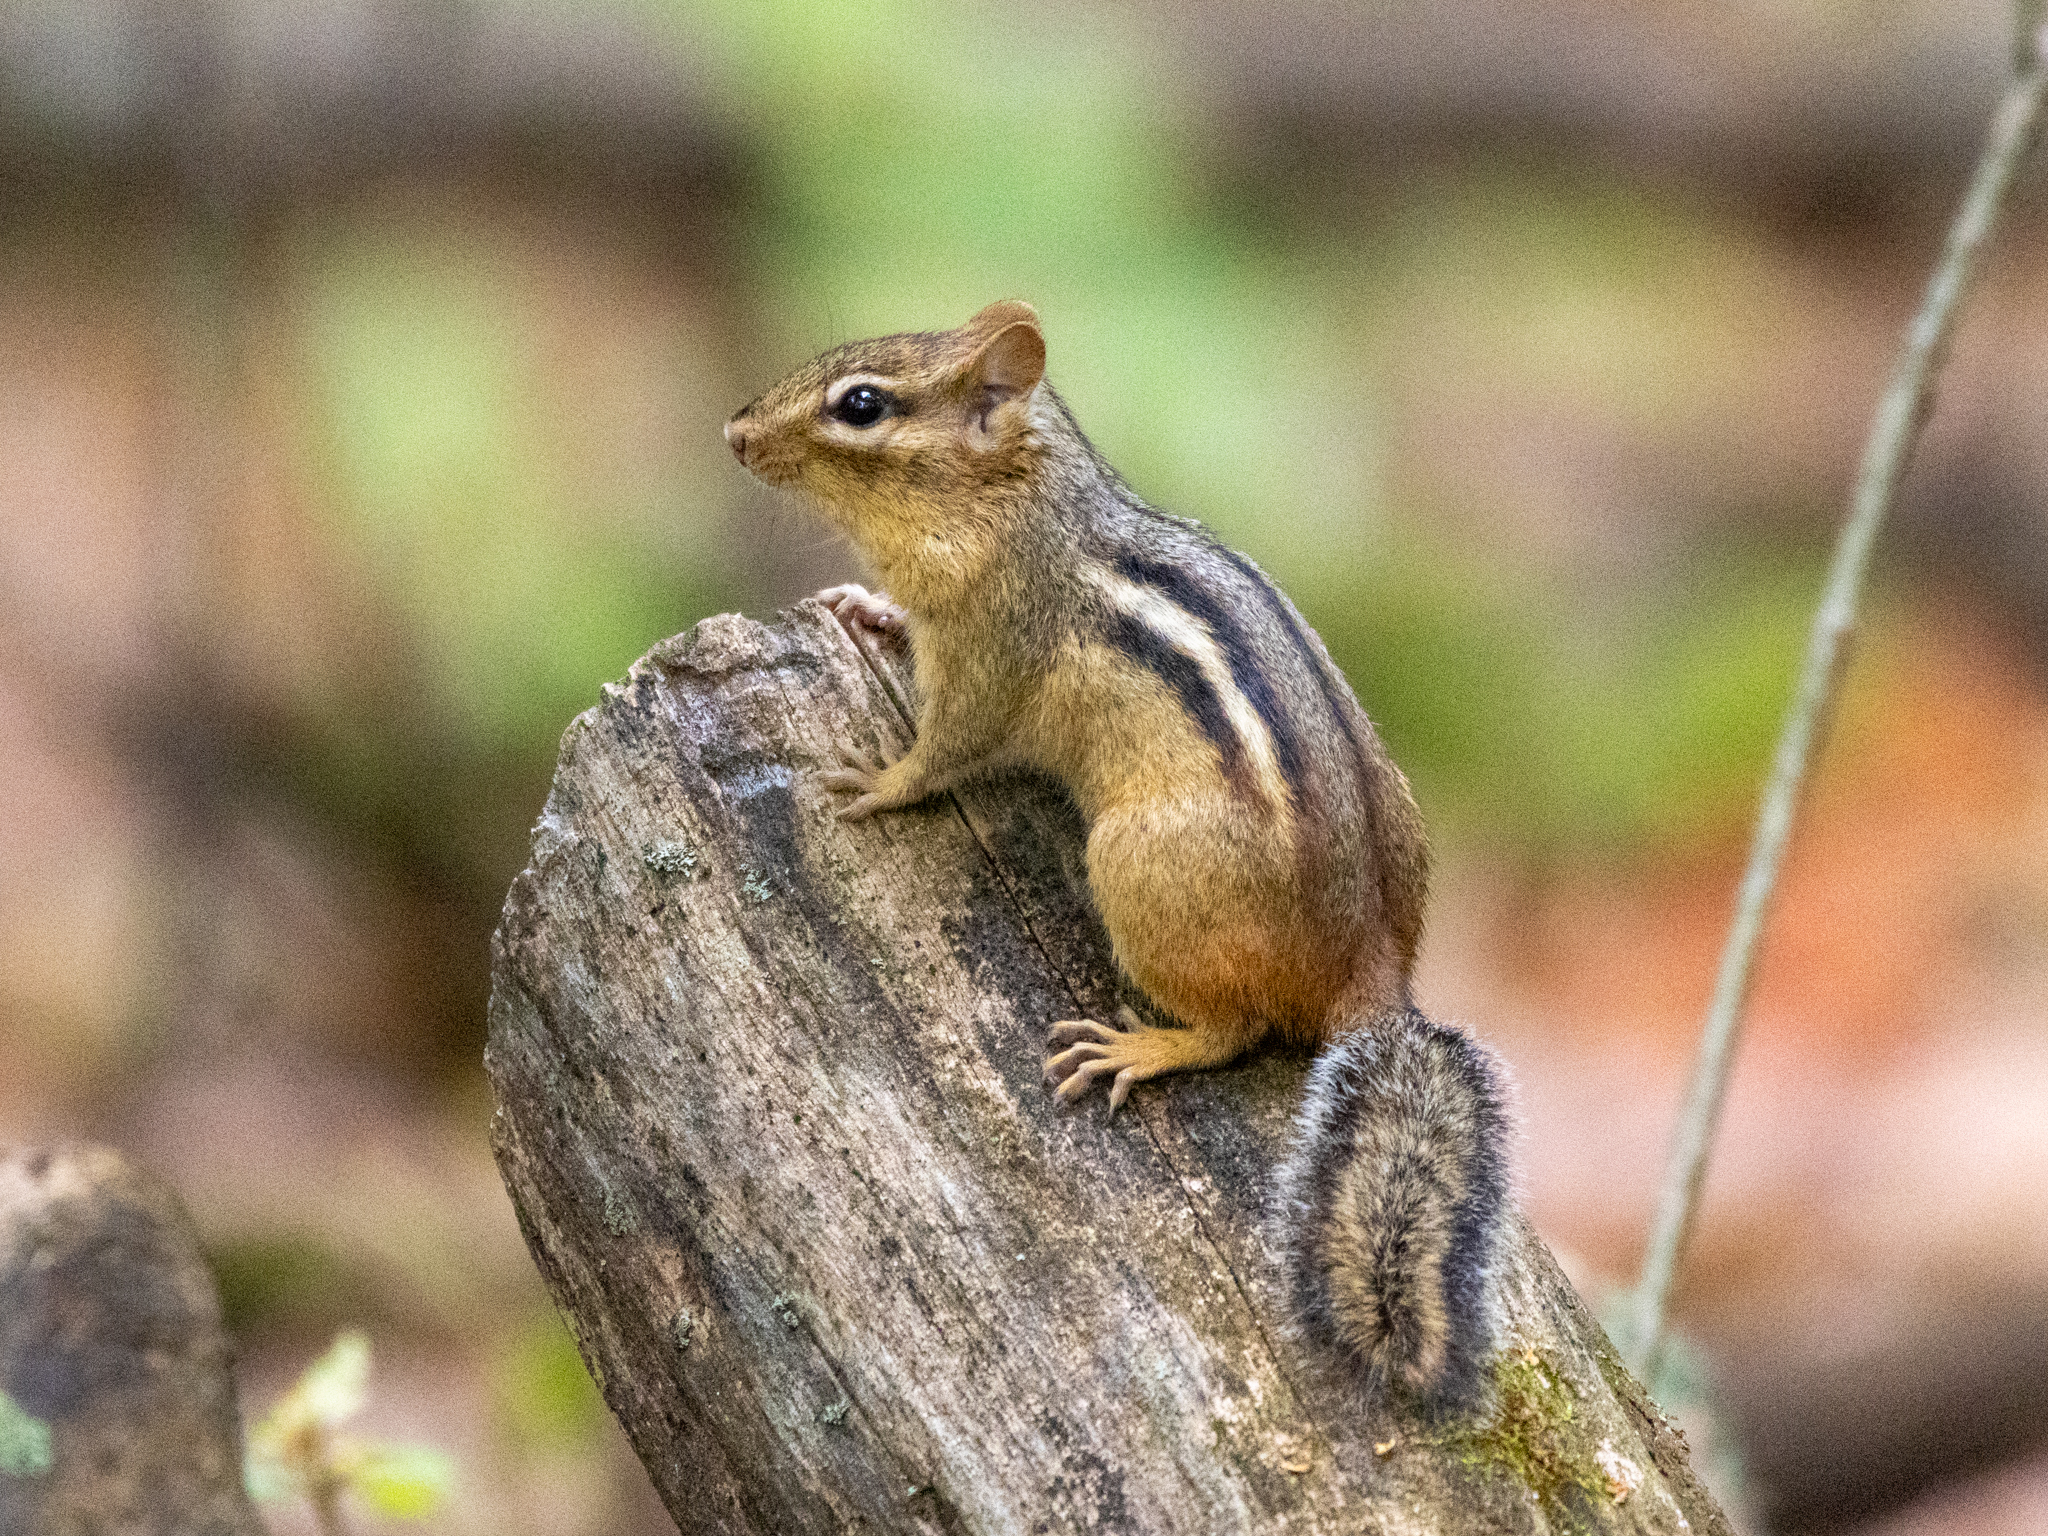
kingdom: Animalia
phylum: Chordata
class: Mammalia
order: Rodentia
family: Sciuridae
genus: Tamias
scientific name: Tamias striatus
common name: Eastern chipmunk
